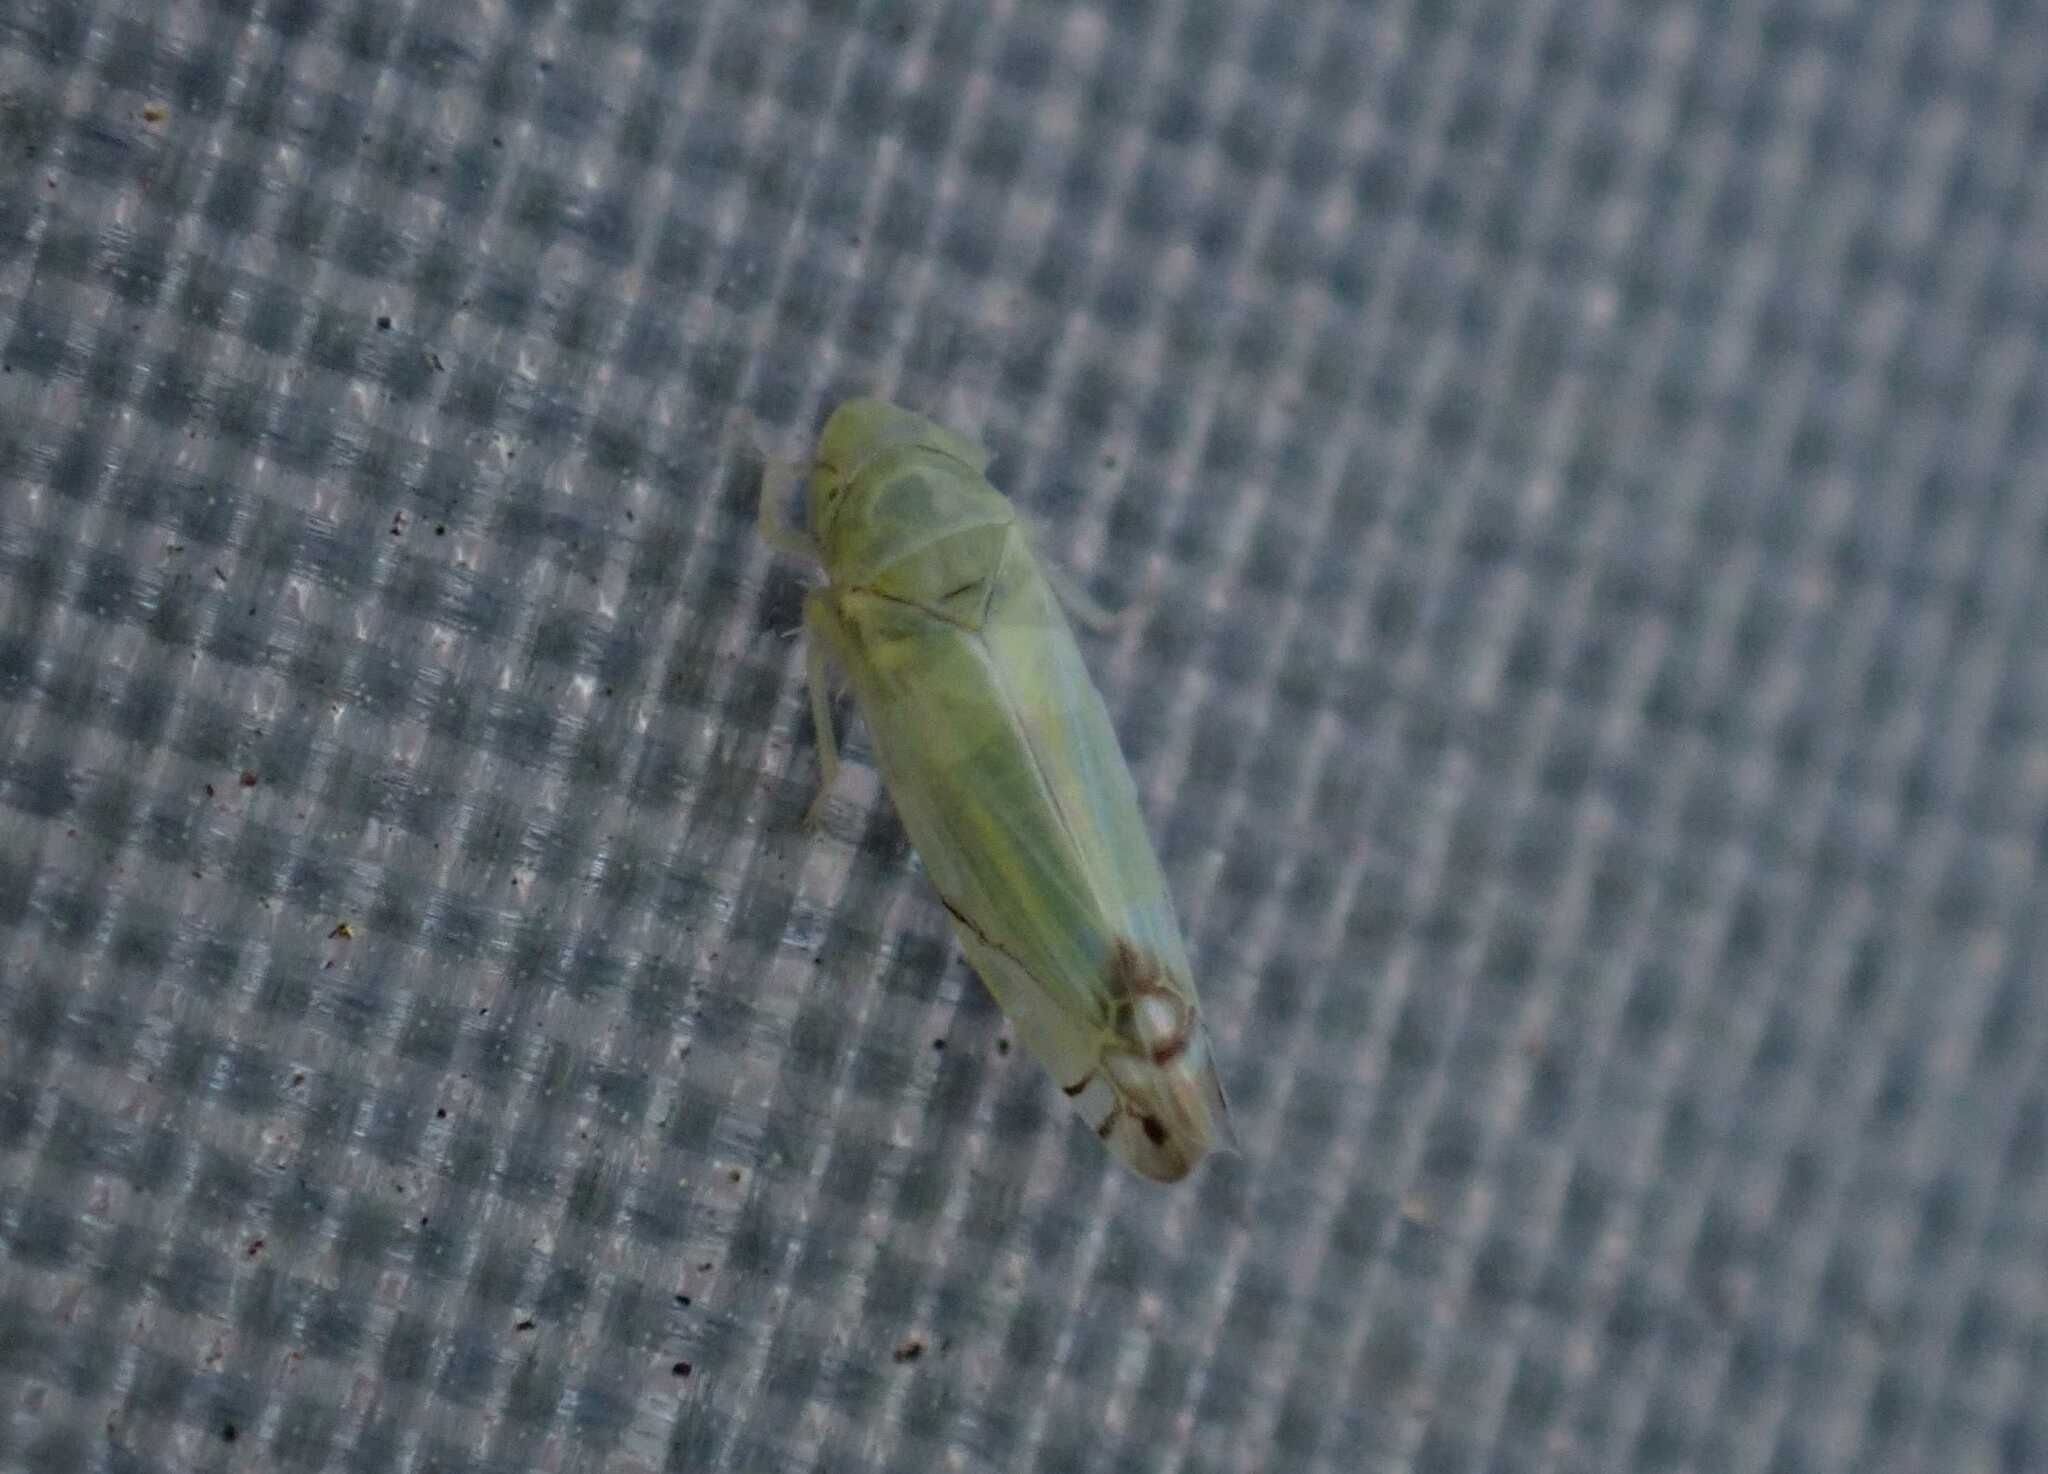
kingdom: Animalia
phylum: Arthropoda
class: Insecta
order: Hemiptera
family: Cicadellidae
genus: Zyginella
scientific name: Zyginella pulchra
